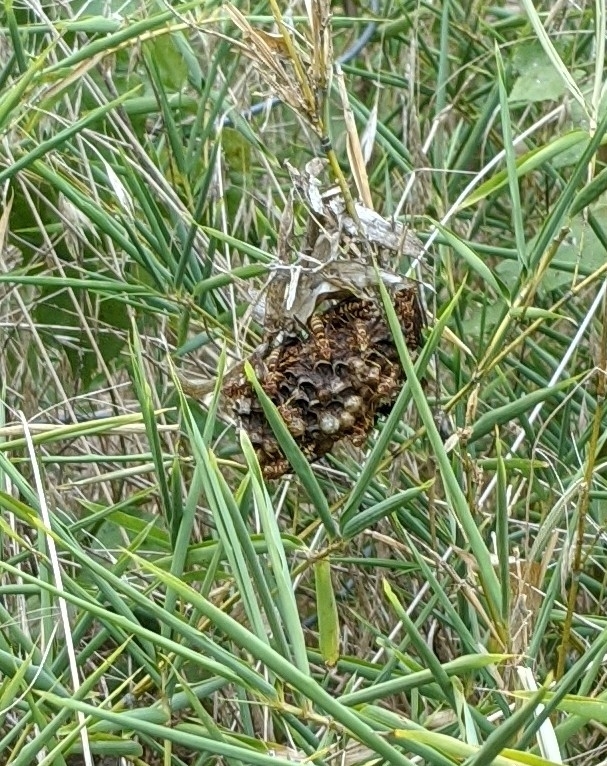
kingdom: Animalia
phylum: Arthropoda
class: Insecta
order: Hymenoptera
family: Eumenidae
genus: Polistes
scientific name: Polistes exclamans
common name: Paper wasp
